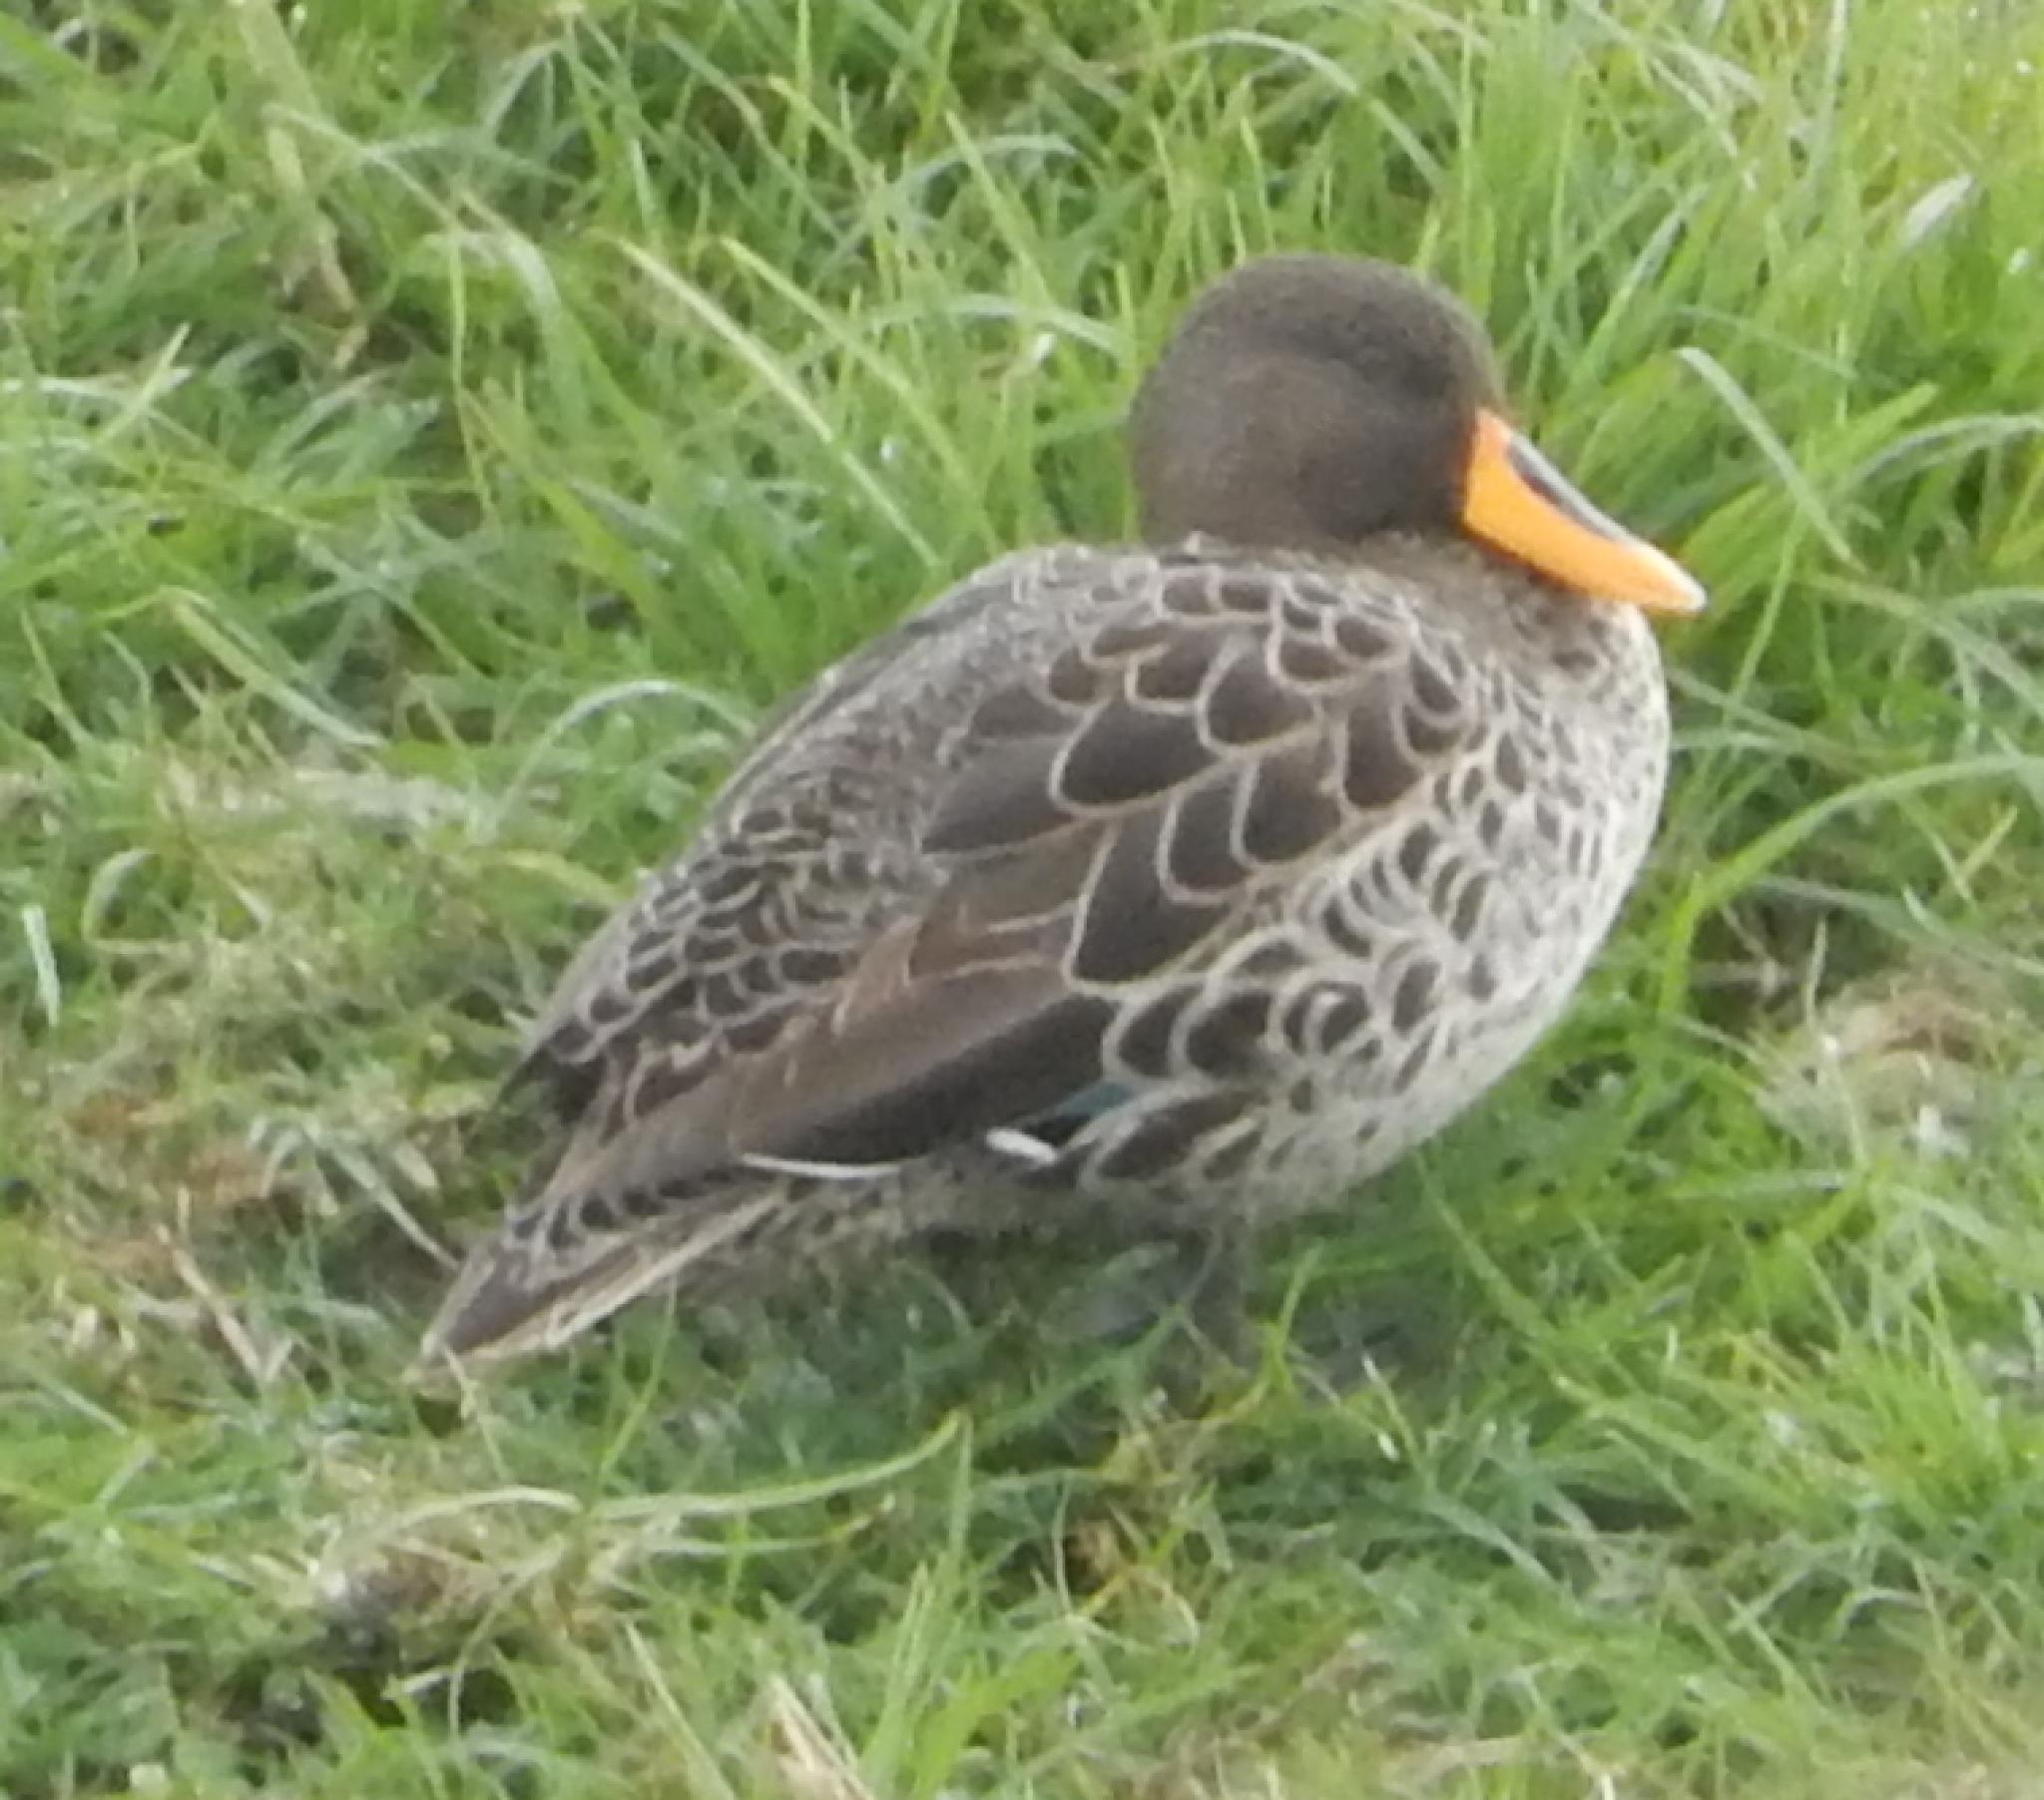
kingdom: Animalia
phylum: Chordata
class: Aves
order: Anseriformes
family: Anatidae
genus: Anas
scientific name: Anas undulata
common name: Yellow-billed duck
